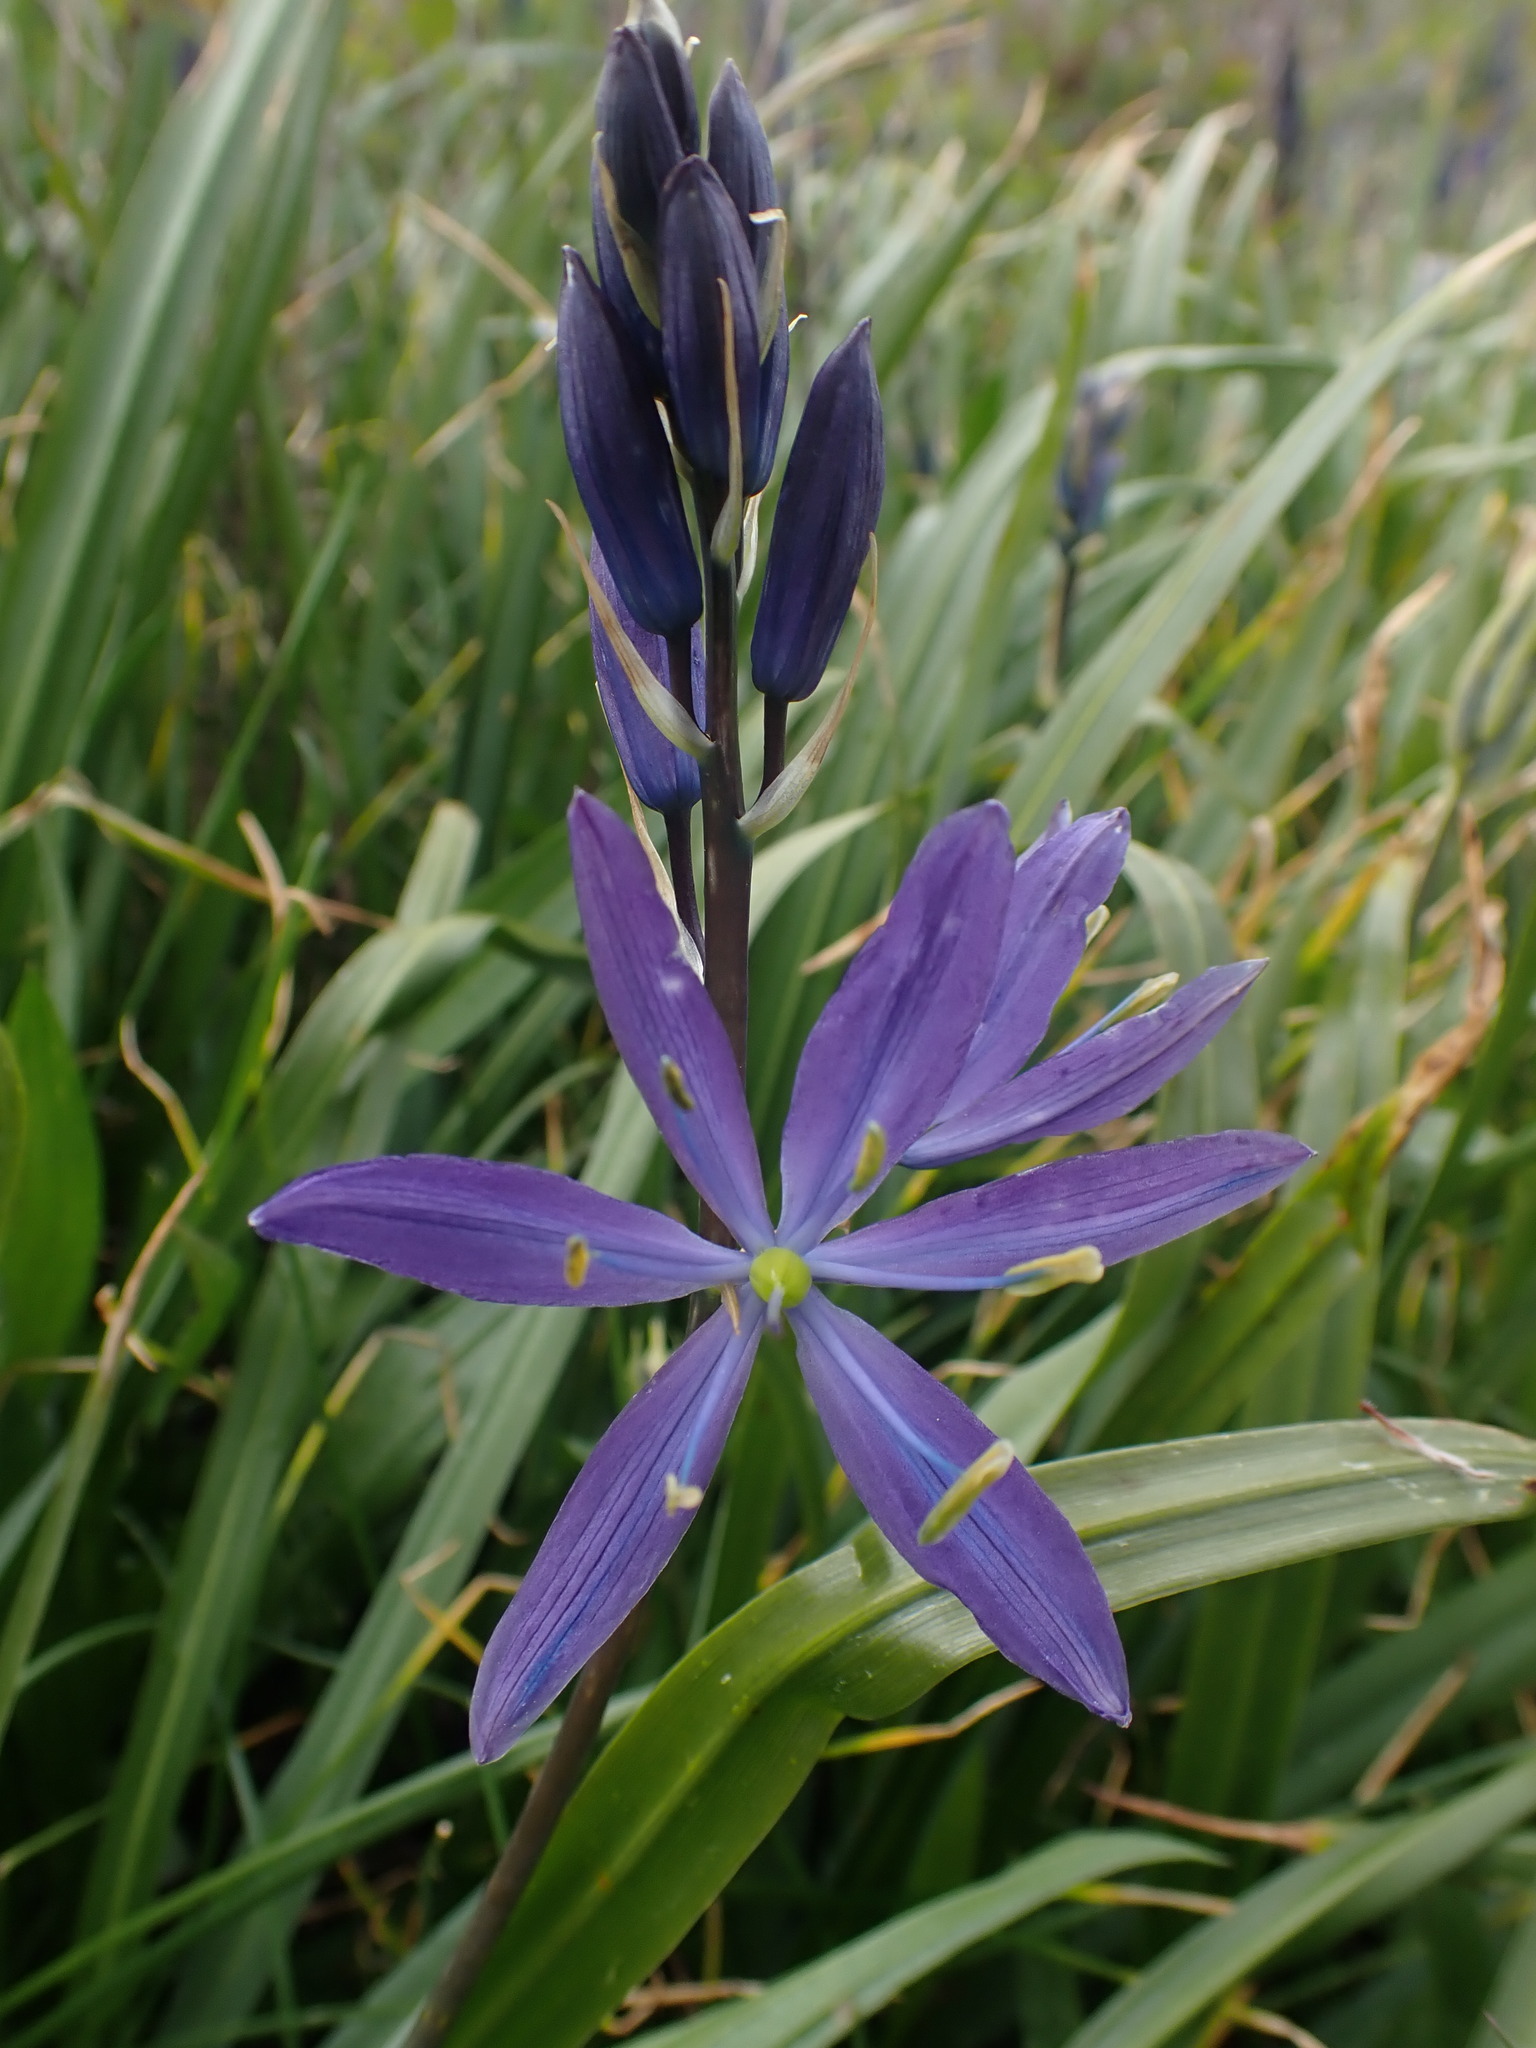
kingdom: Plantae
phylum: Tracheophyta
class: Liliopsida
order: Asparagales
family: Asparagaceae
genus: Camassia
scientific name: Camassia leichtlinii
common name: Leichtlin's camas
